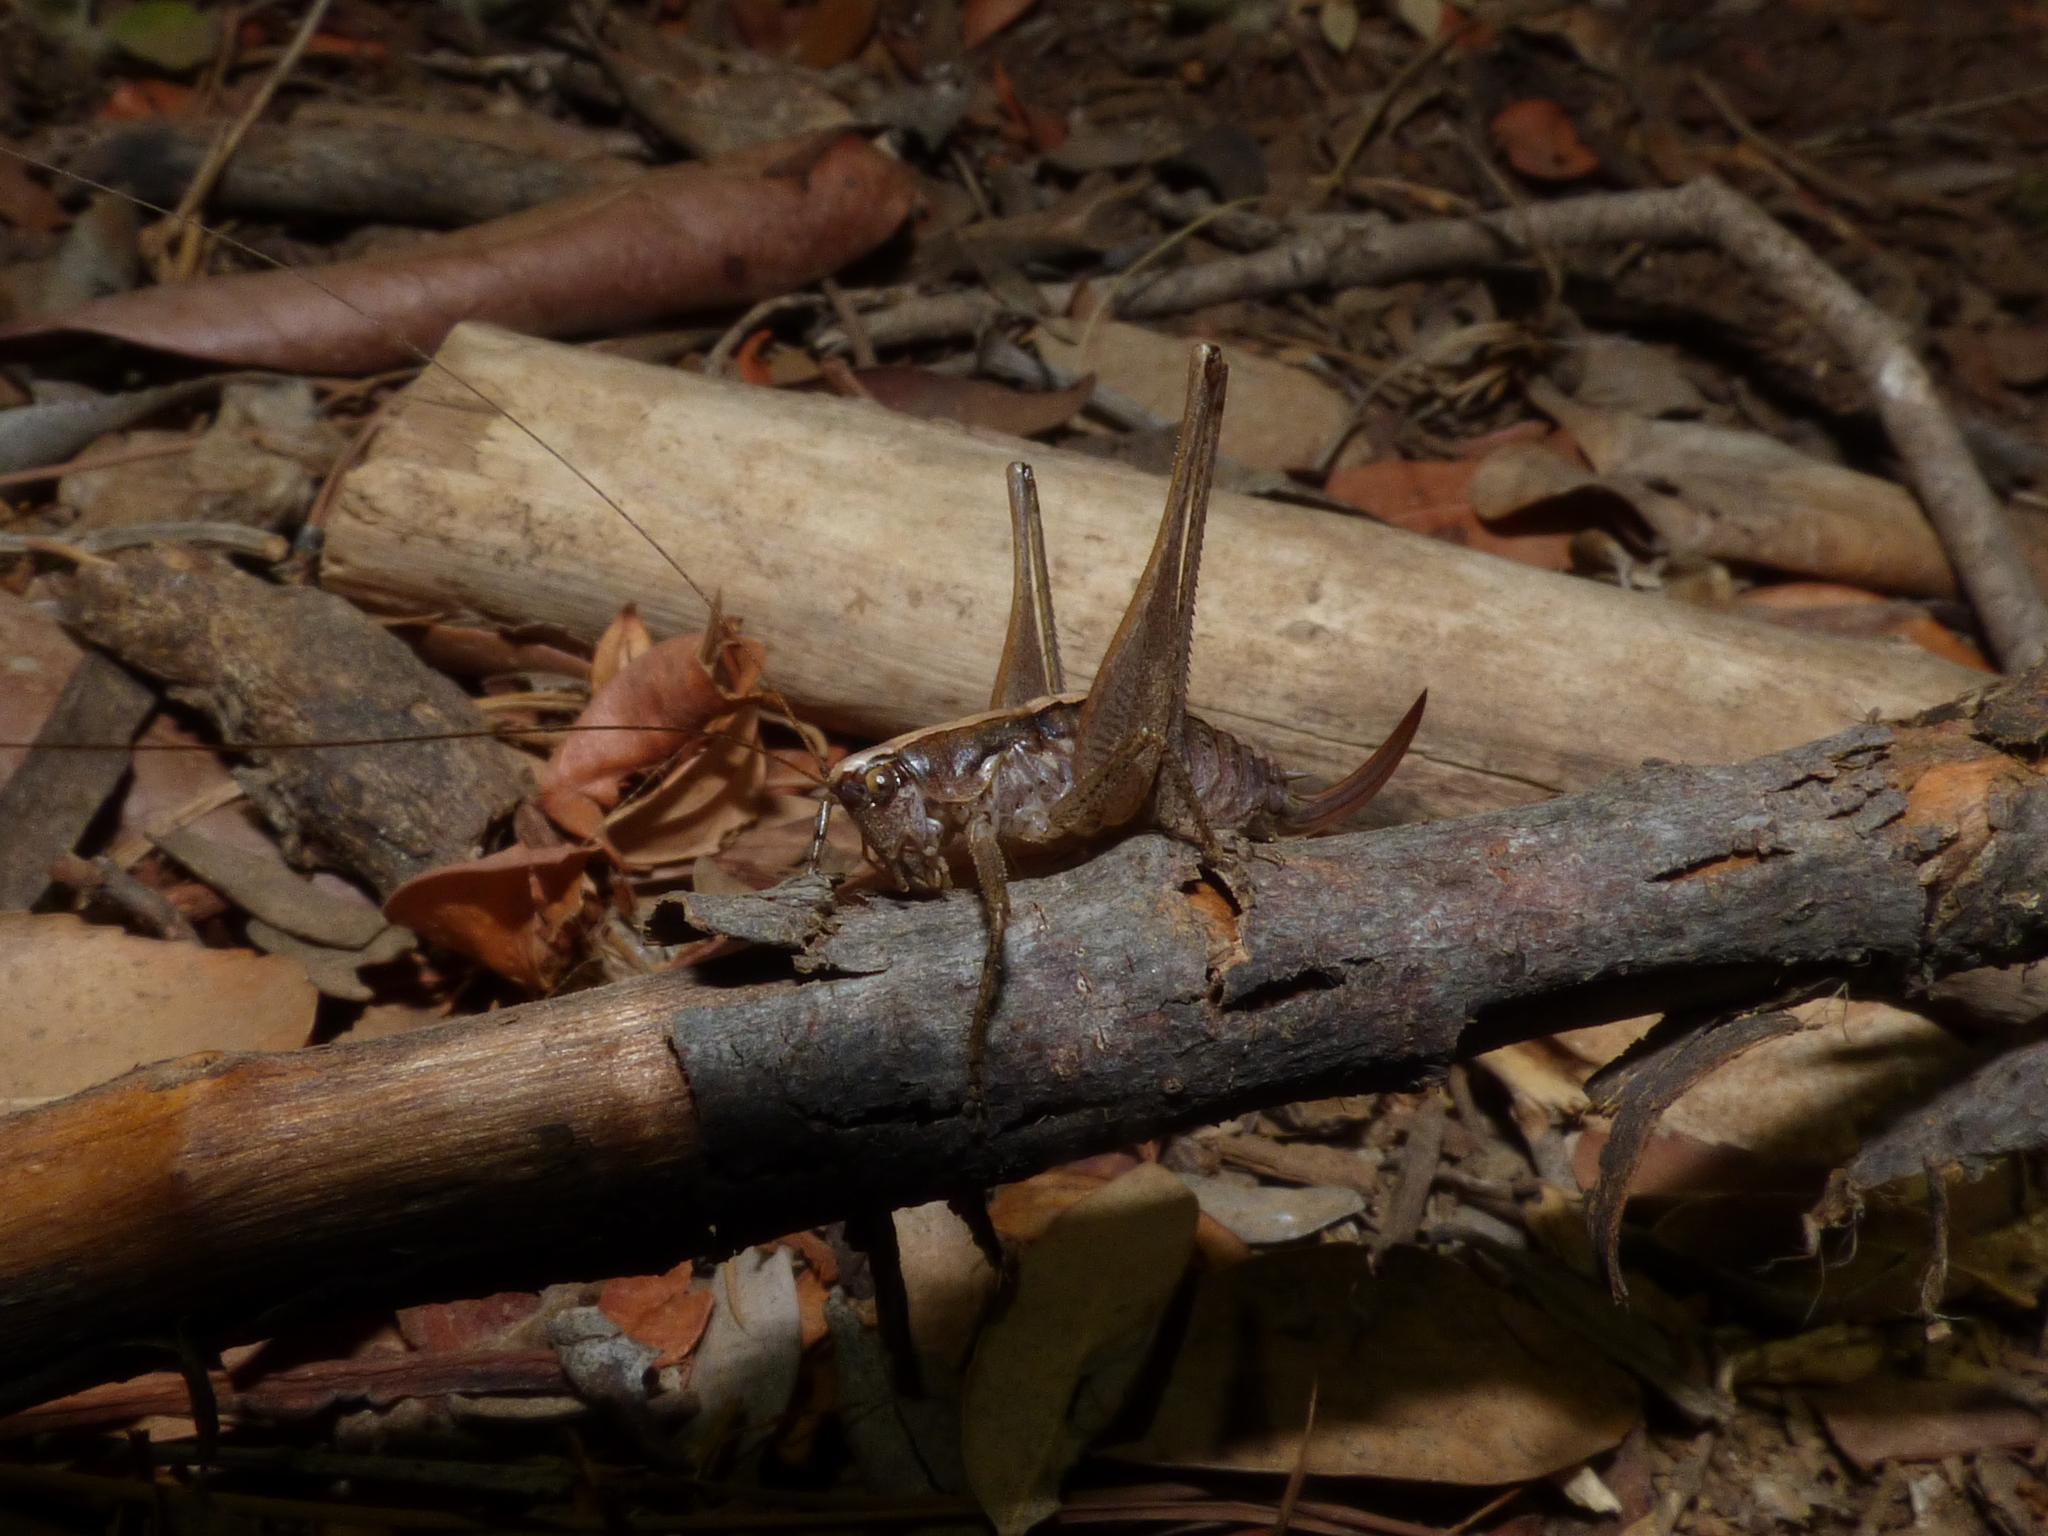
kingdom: Animalia
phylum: Arthropoda
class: Insecta
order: Orthoptera
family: Tettigoniidae
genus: Yersinella
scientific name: Yersinella raymondii
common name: Raymond's bush-cricket
